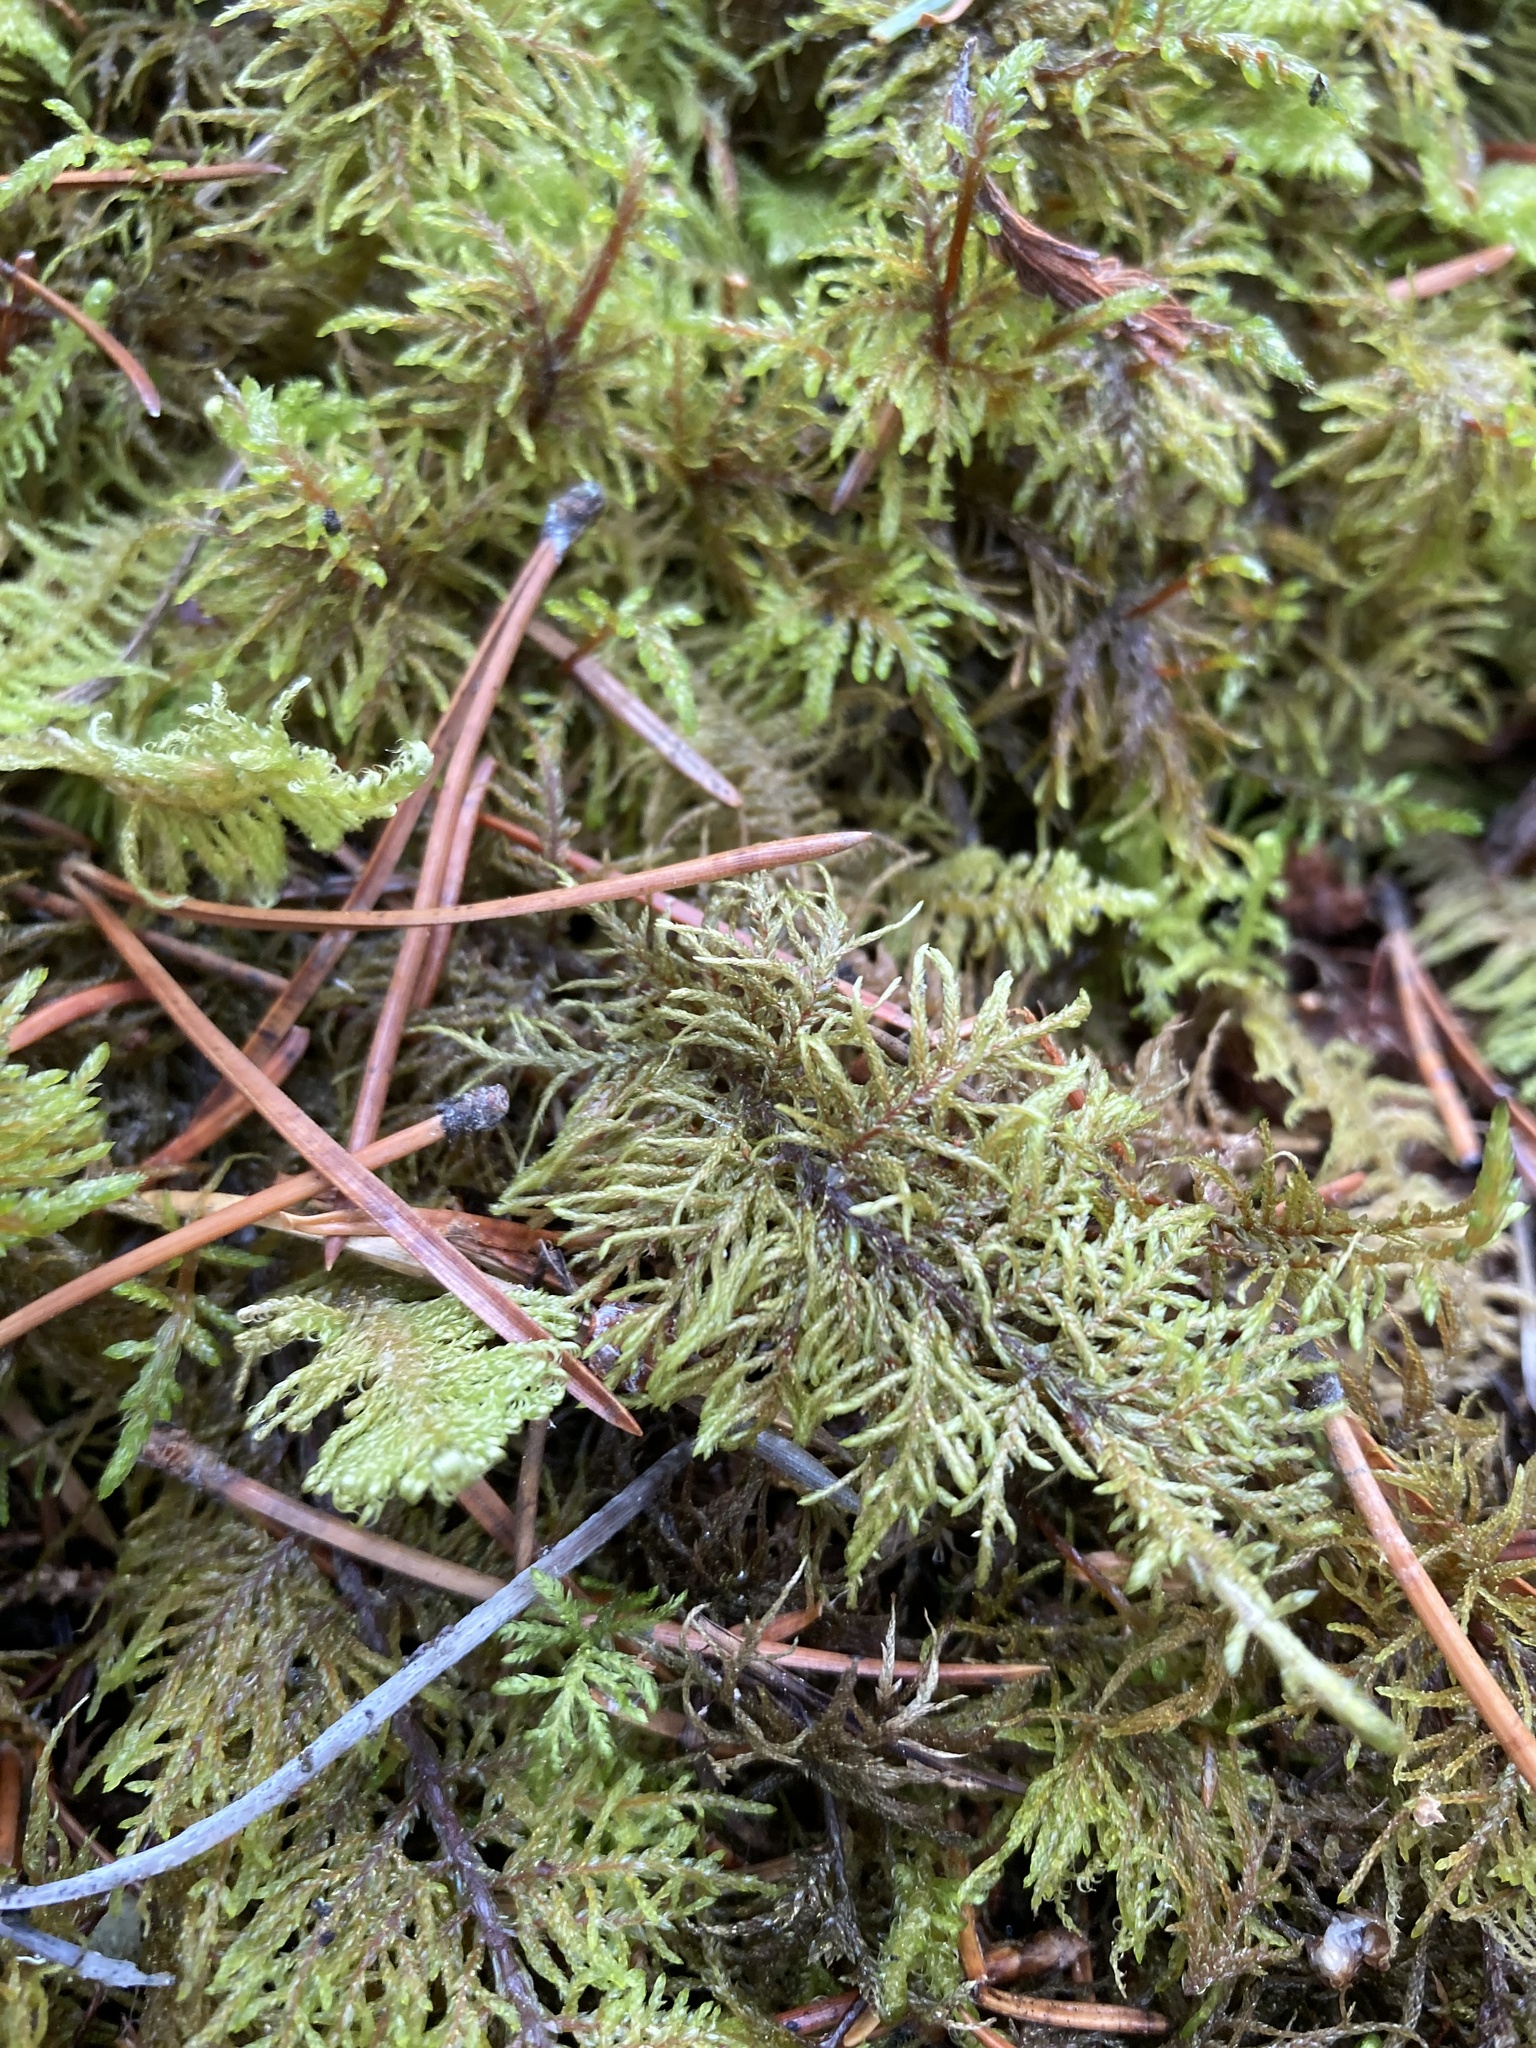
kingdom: Plantae
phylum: Bryophyta
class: Bryopsida
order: Hypnales
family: Hylocomiaceae
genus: Hylocomium
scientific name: Hylocomium splendens
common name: Stairstep moss
